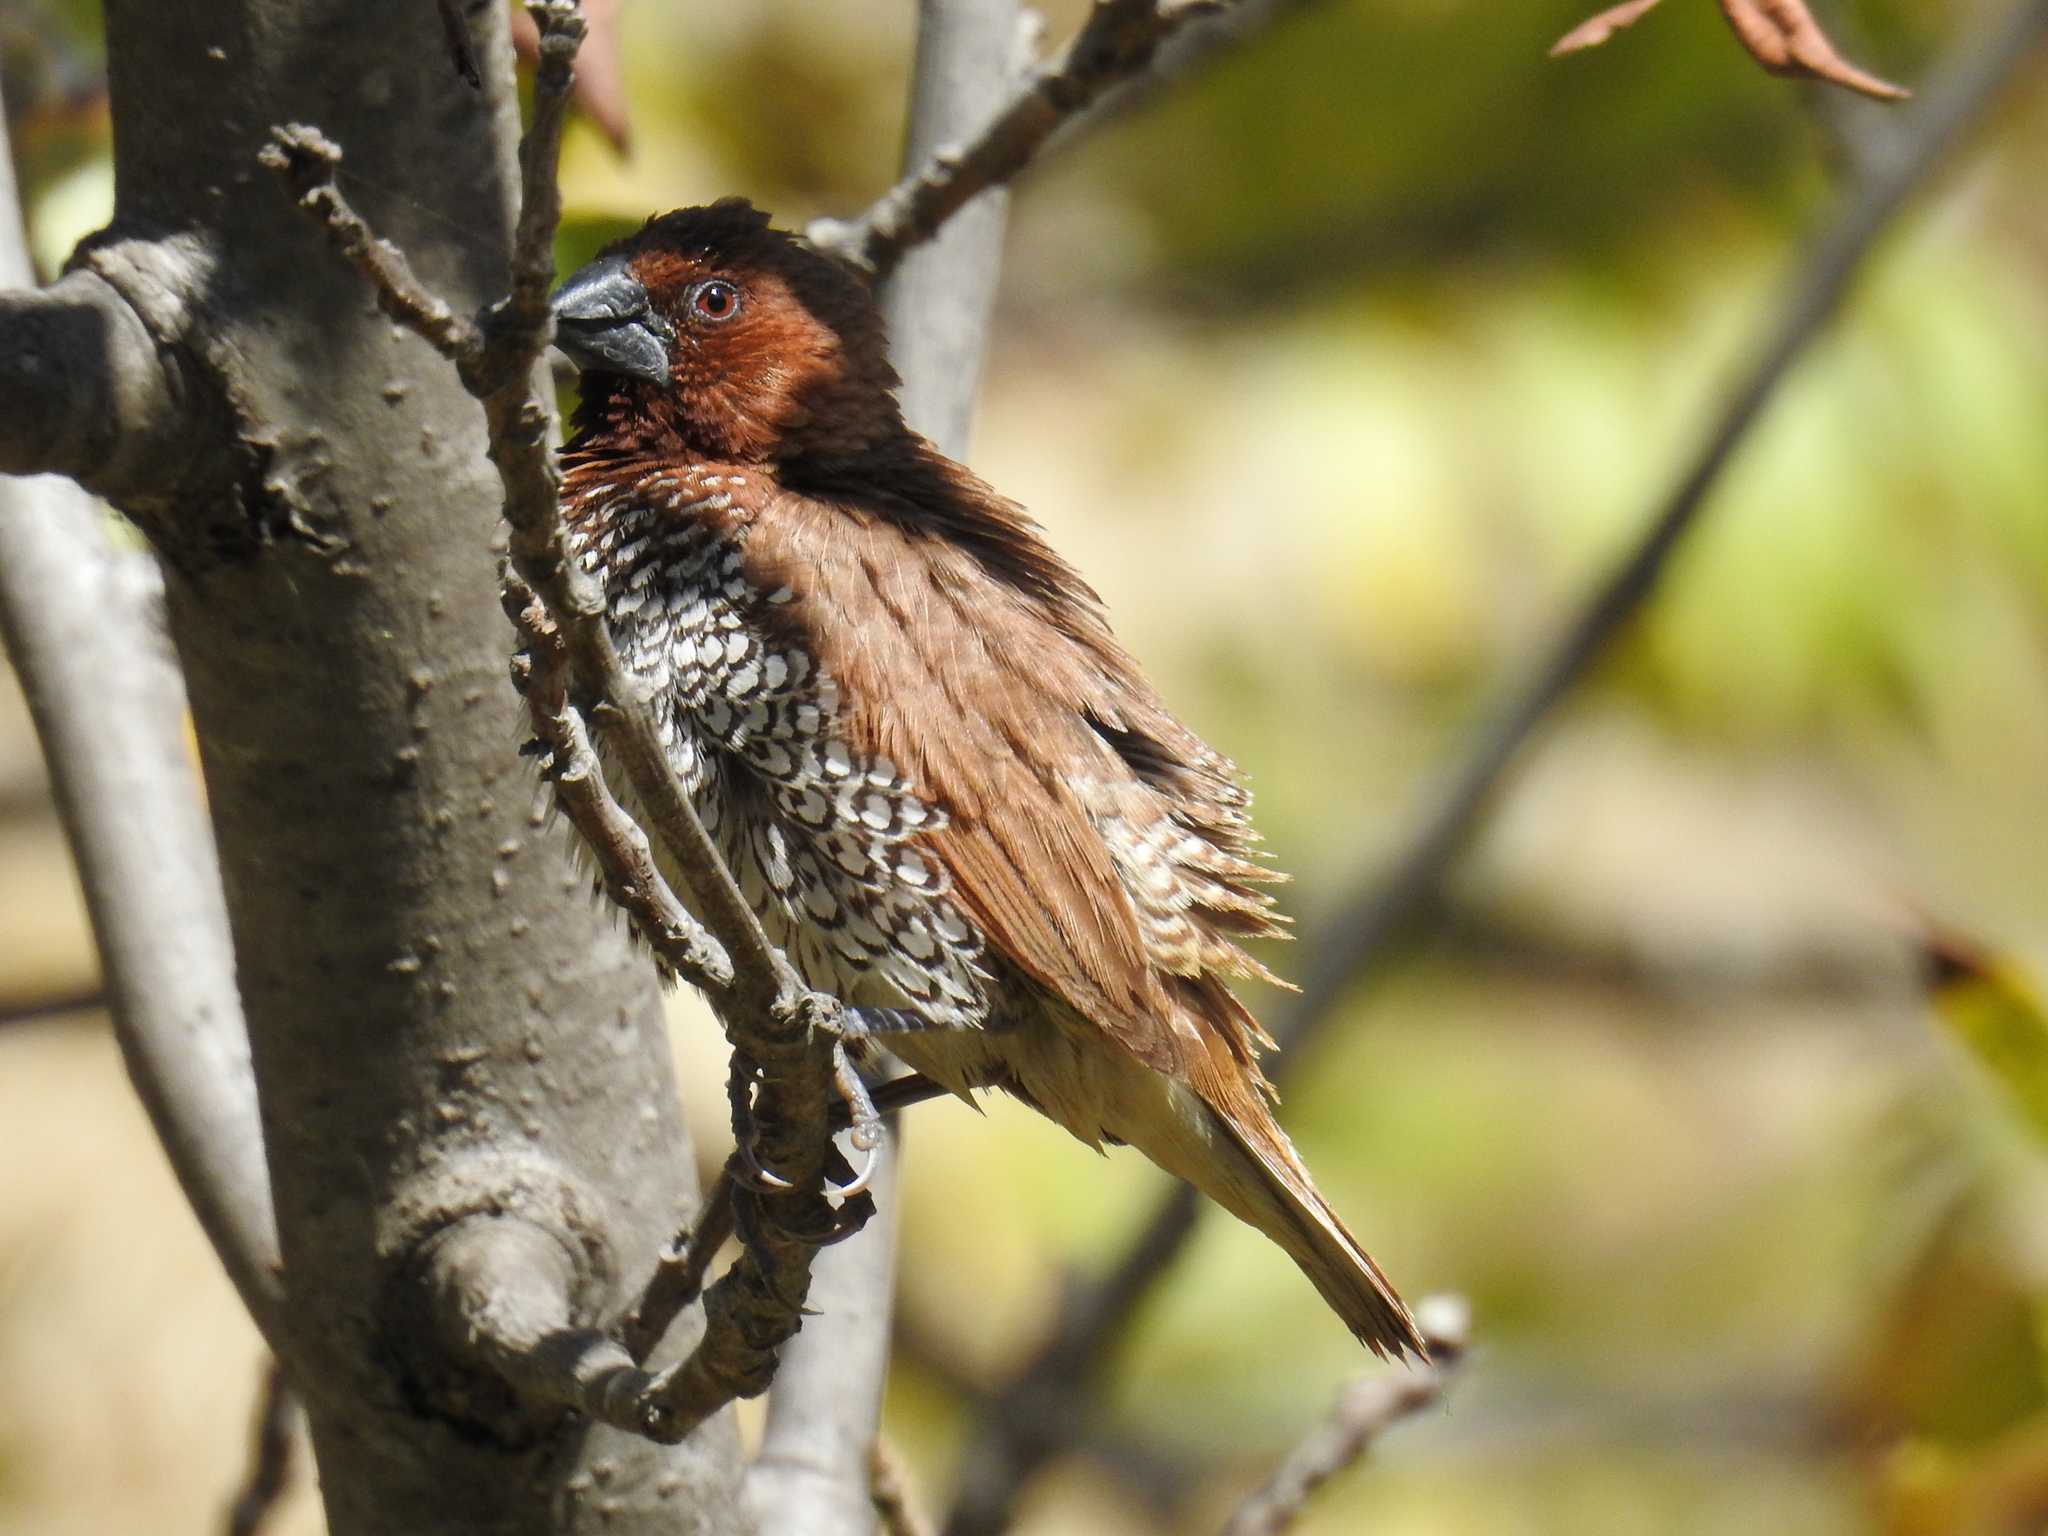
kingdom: Animalia
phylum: Chordata
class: Aves
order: Passeriformes
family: Estrildidae
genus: Lonchura
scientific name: Lonchura punctulata
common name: Scaly-breasted munia
